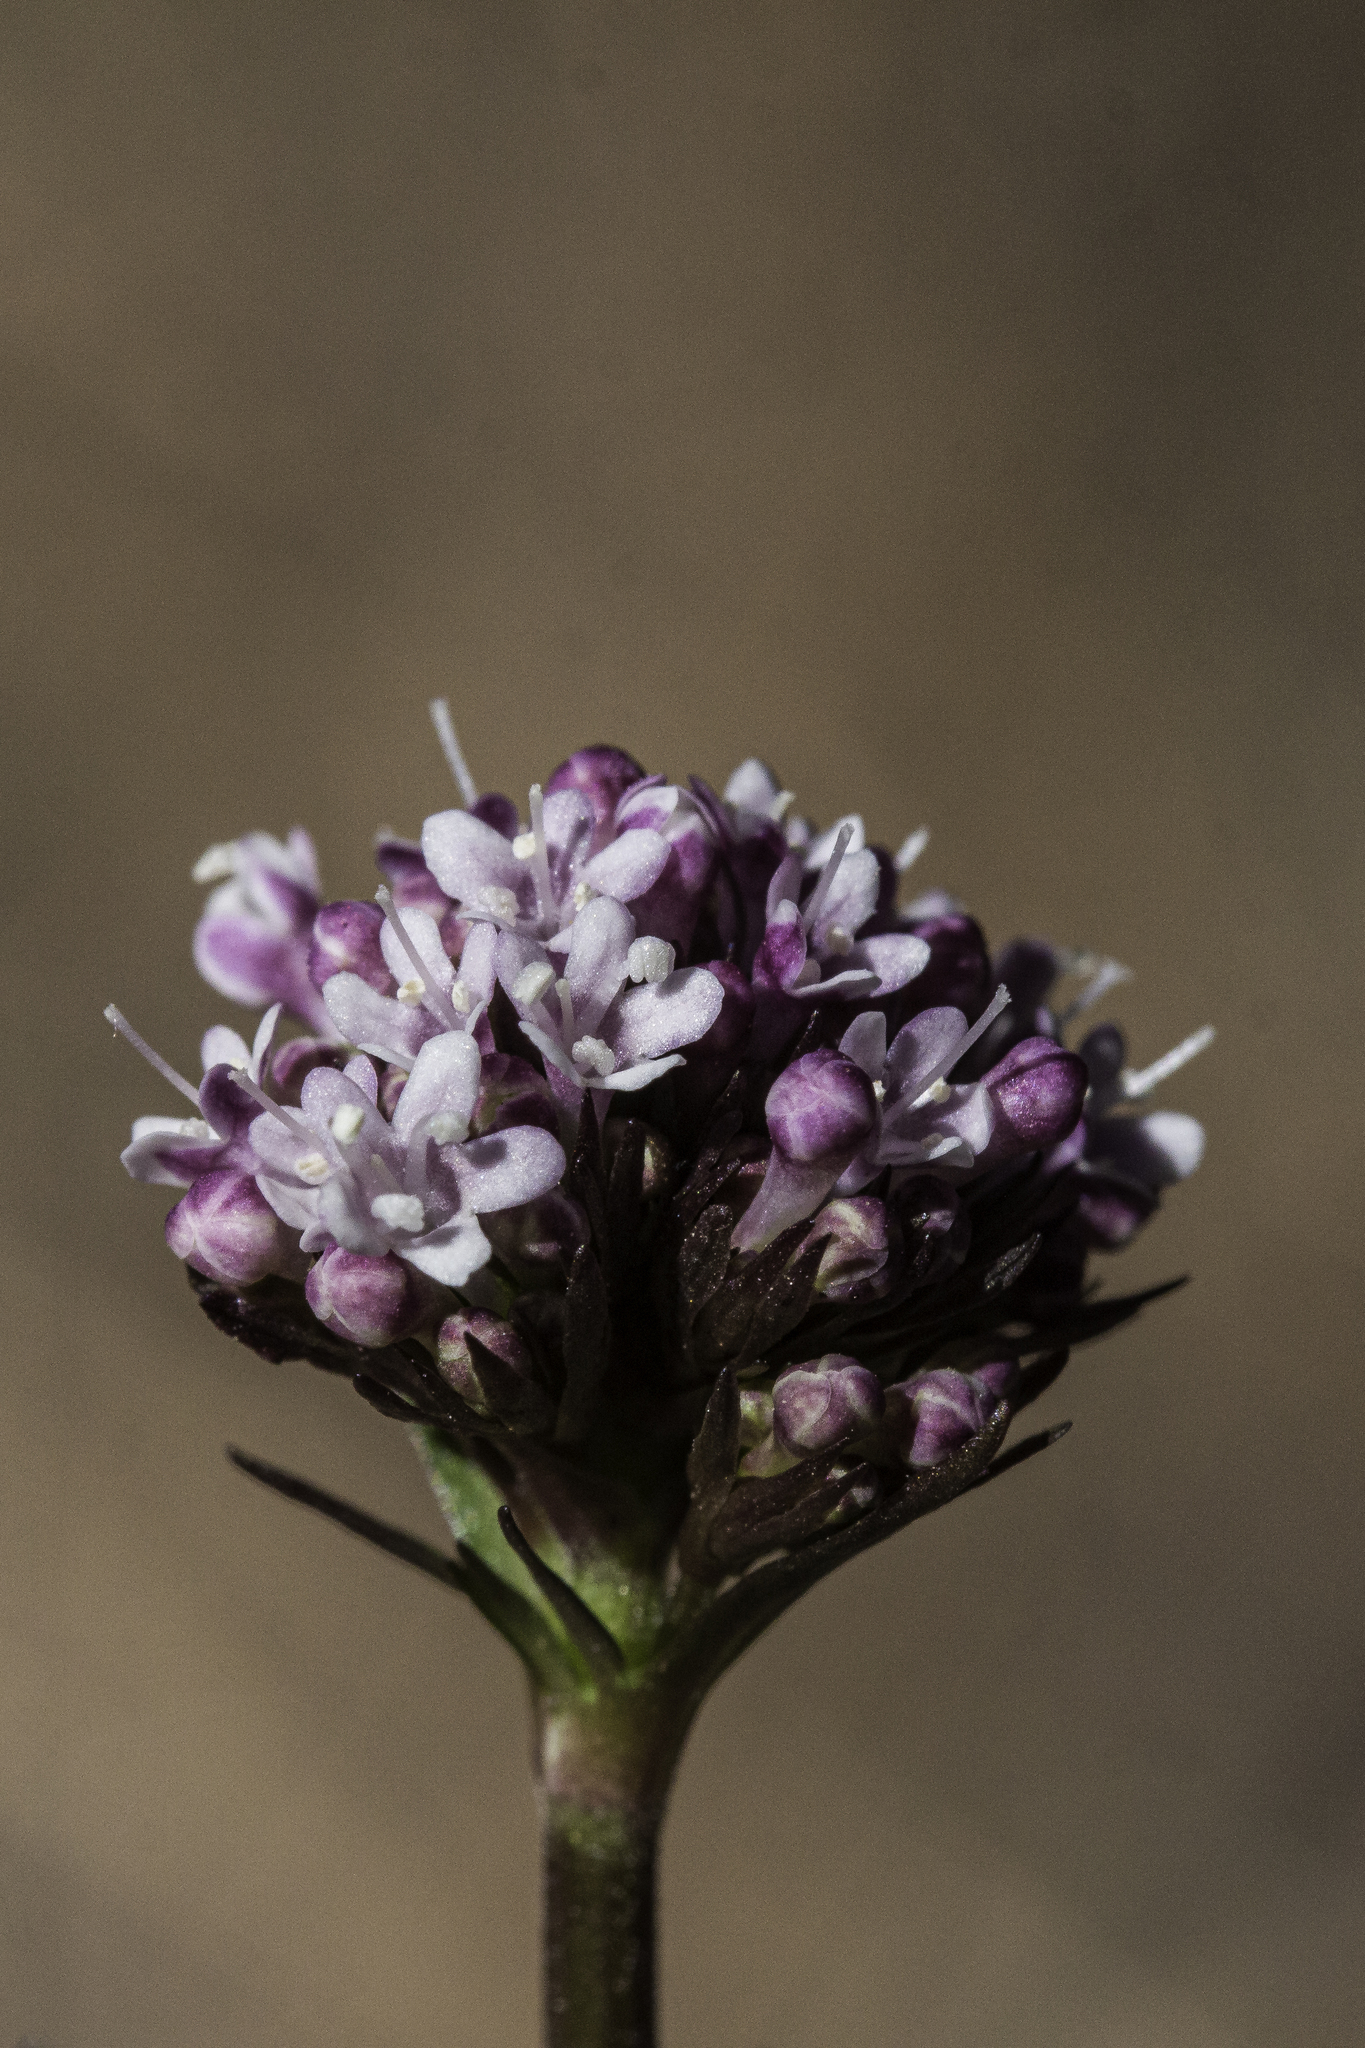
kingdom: Plantae
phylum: Tracheophyta
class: Magnoliopsida
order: Dipsacales
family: Caprifoliaceae
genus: Valeriana
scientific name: Valeriana arizonica
